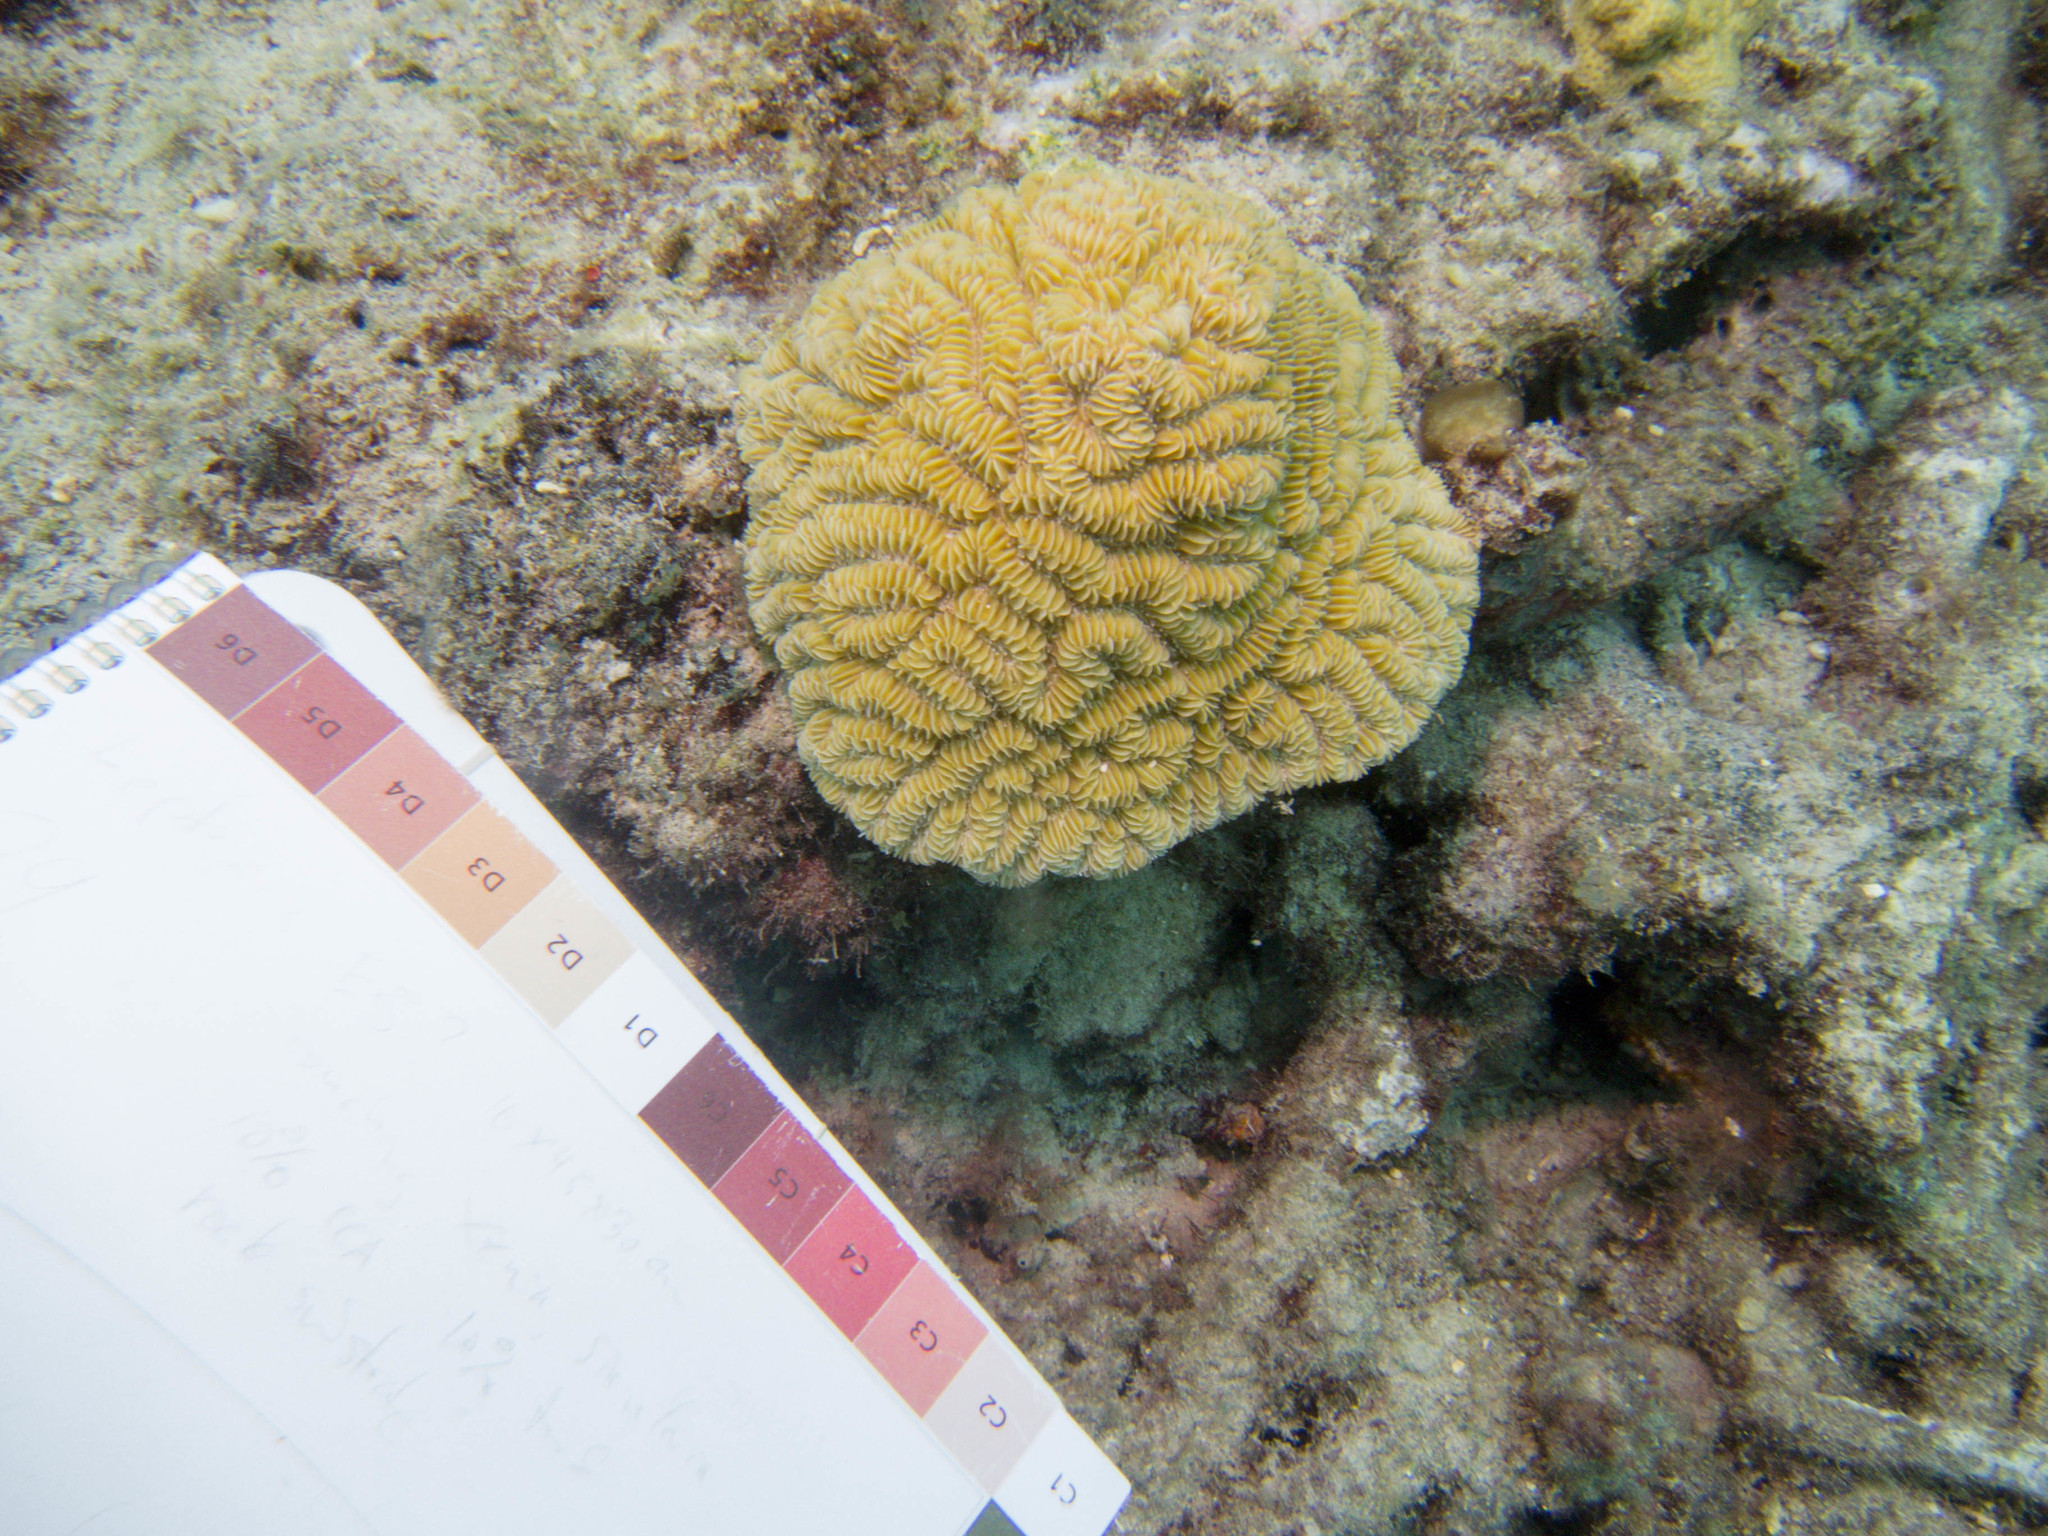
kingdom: Animalia
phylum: Cnidaria
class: Anthozoa
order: Scleractinia
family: Meandrinidae
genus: Meandrina
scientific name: Meandrina meandrites
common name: Maze coral
